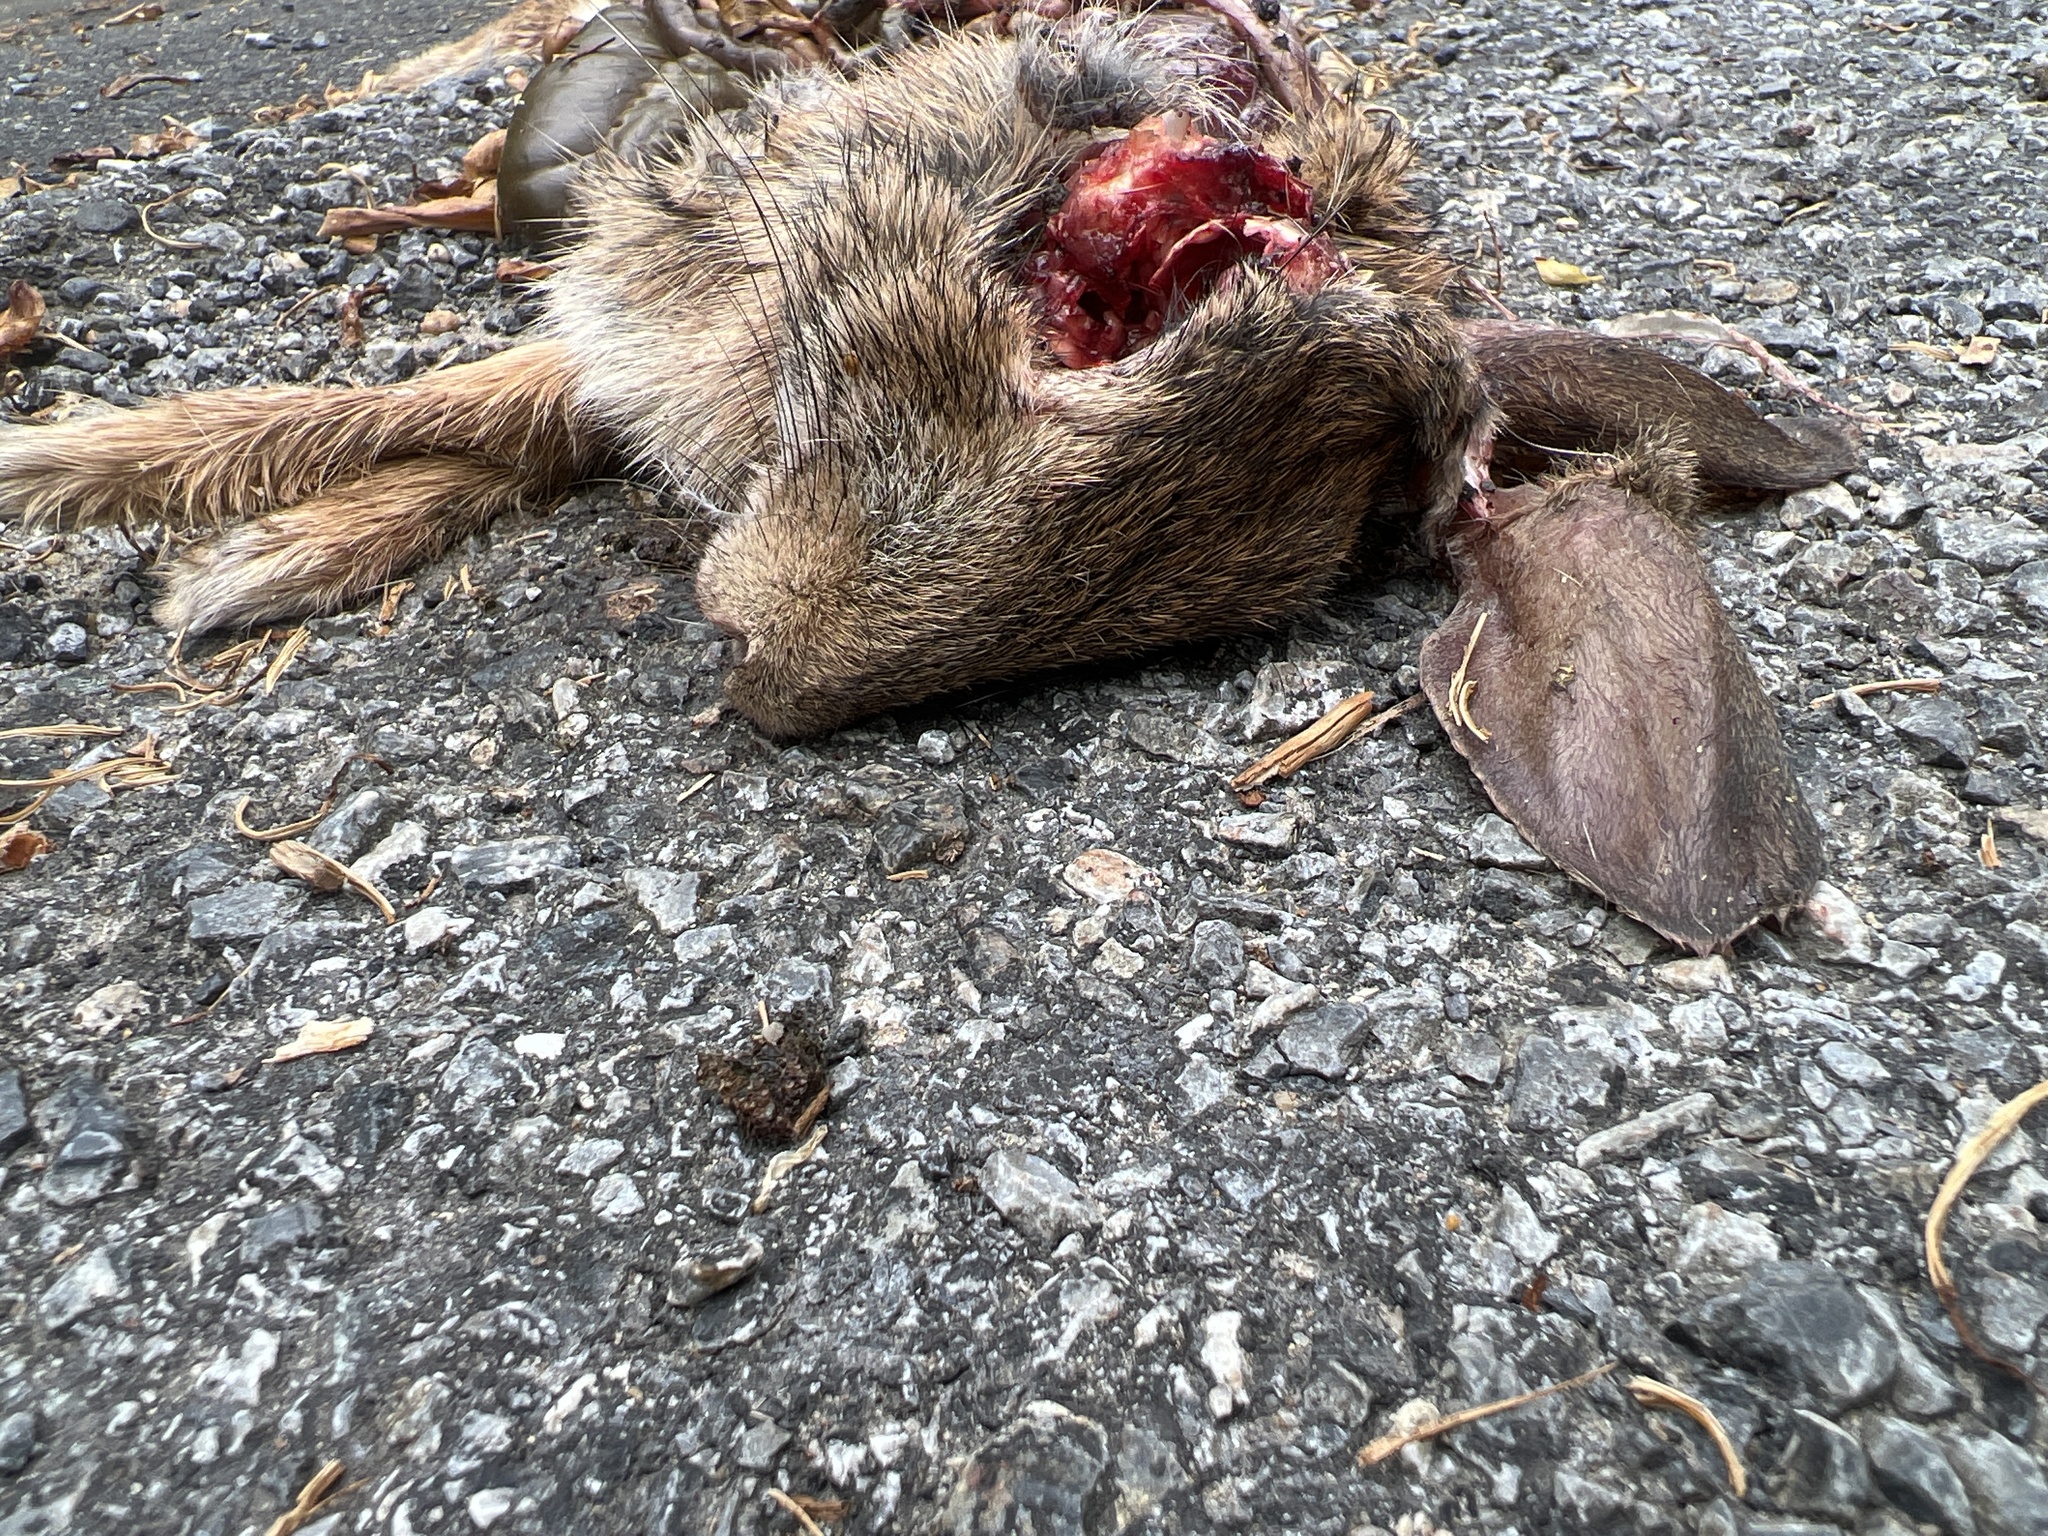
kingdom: Animalia
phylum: Chordata
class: Mammalia
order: Lagomorpha
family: Leporidae
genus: Sylvilagus
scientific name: Sylvilagus floridanus
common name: Eastern cottontail
